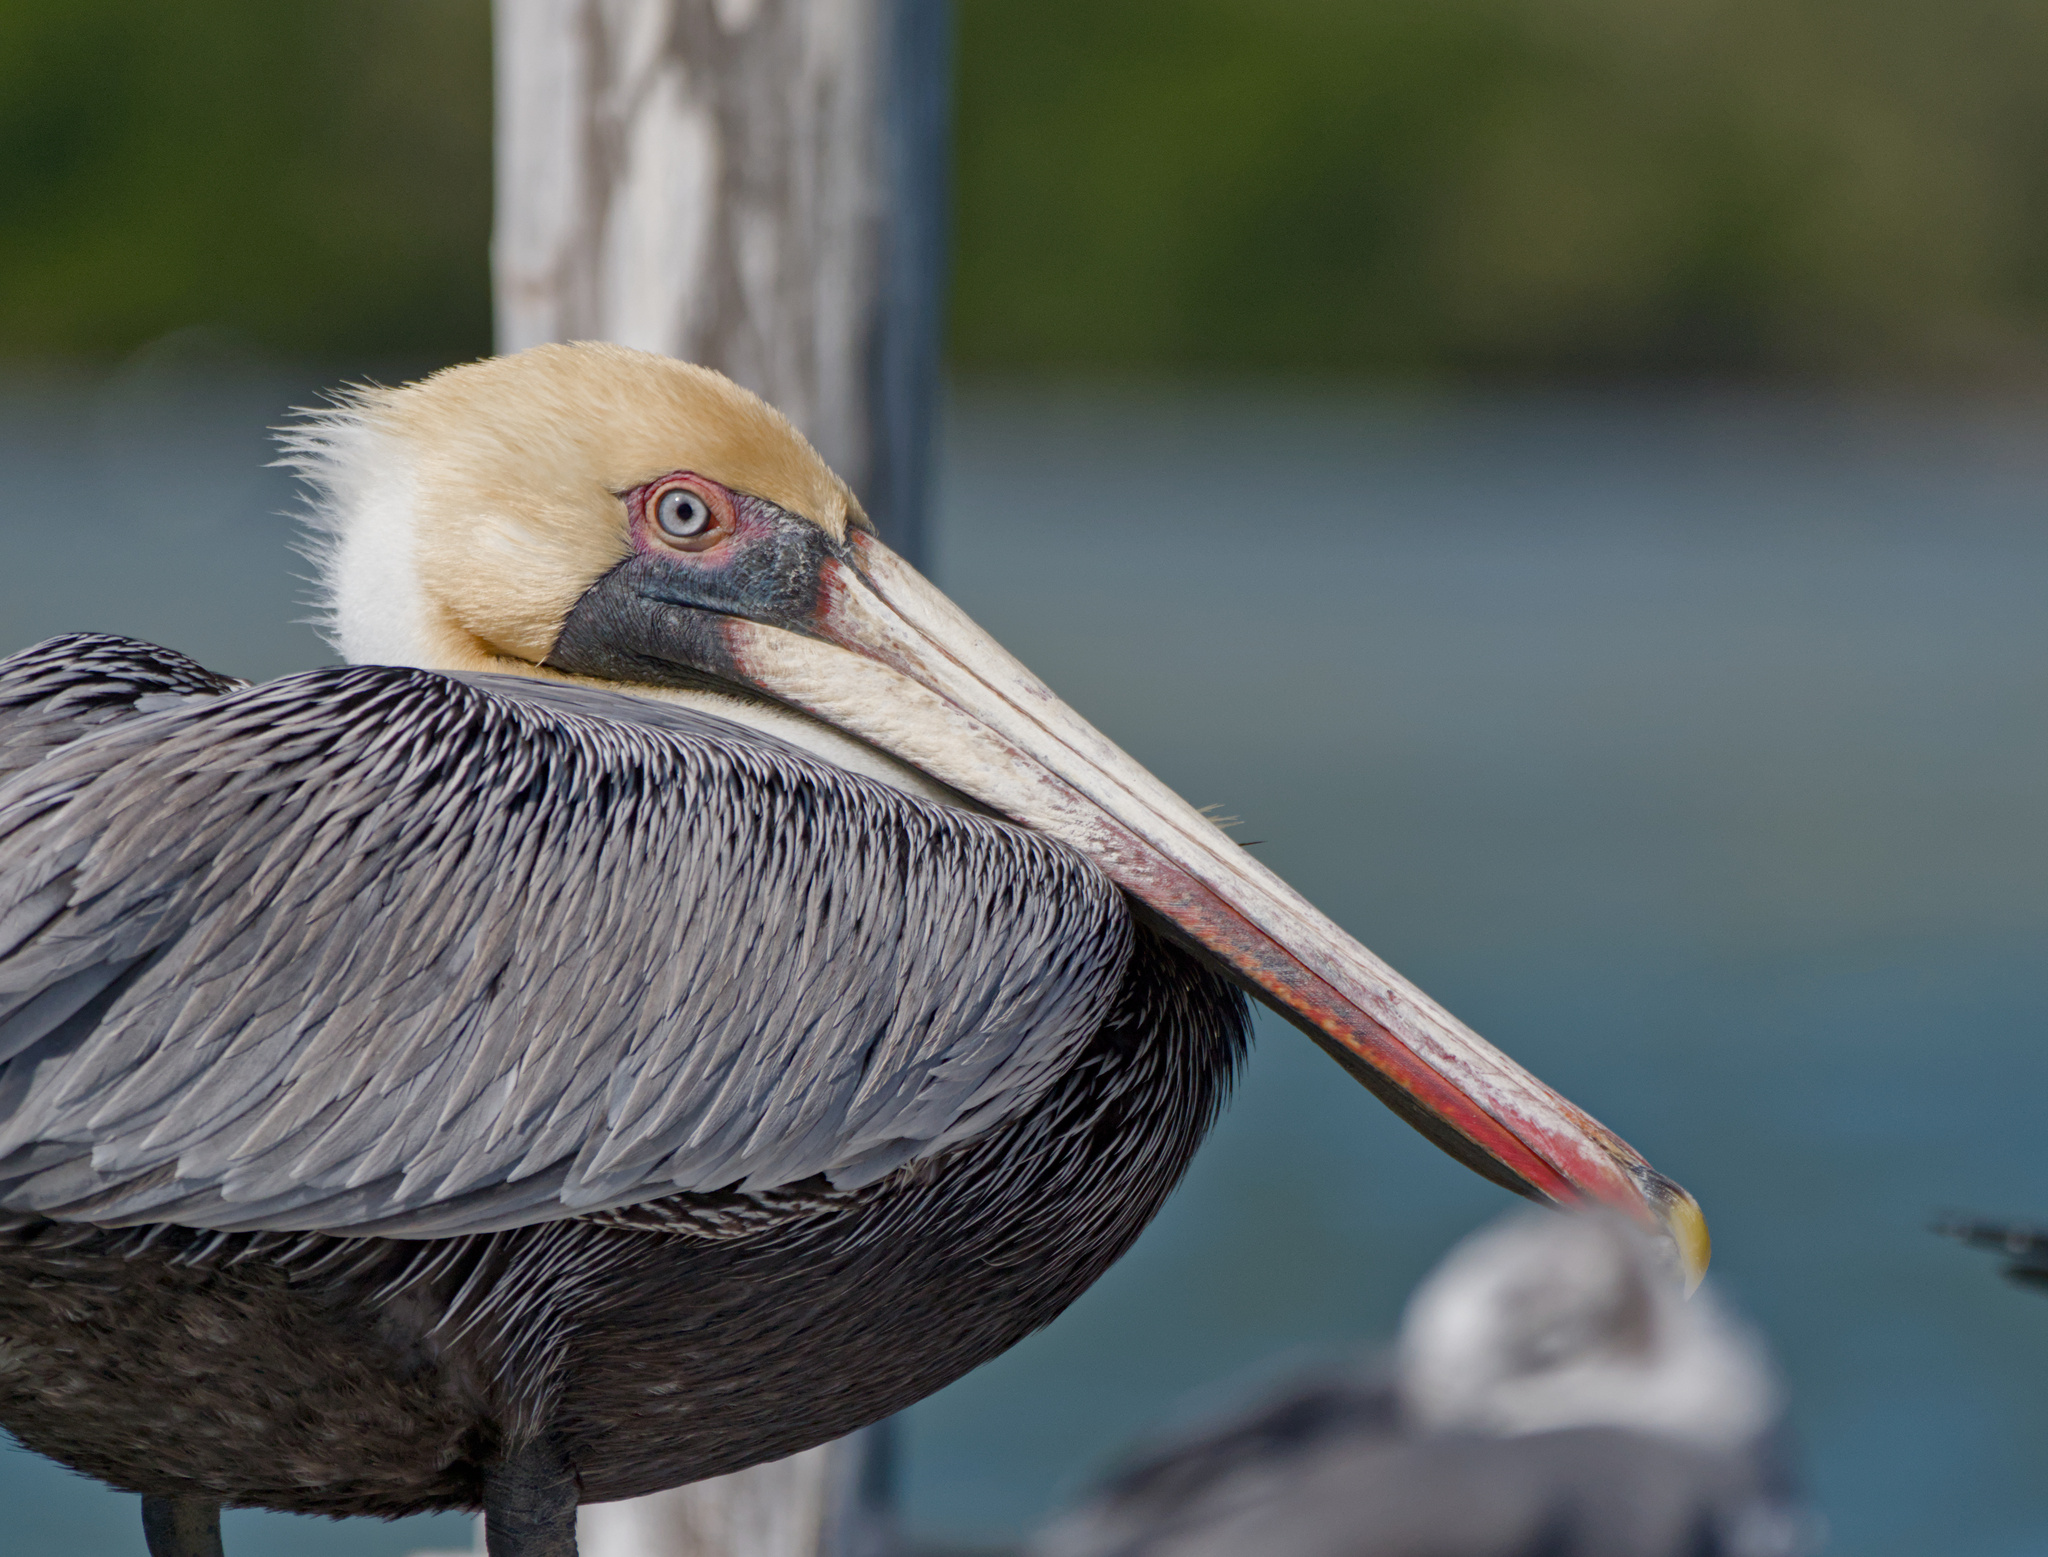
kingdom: Animalia
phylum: Chordata
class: Aves
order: Pelecaniformes
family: Pelecanidae
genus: Pelecanus
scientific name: Pelecanus occidentalis
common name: Brown pelican
